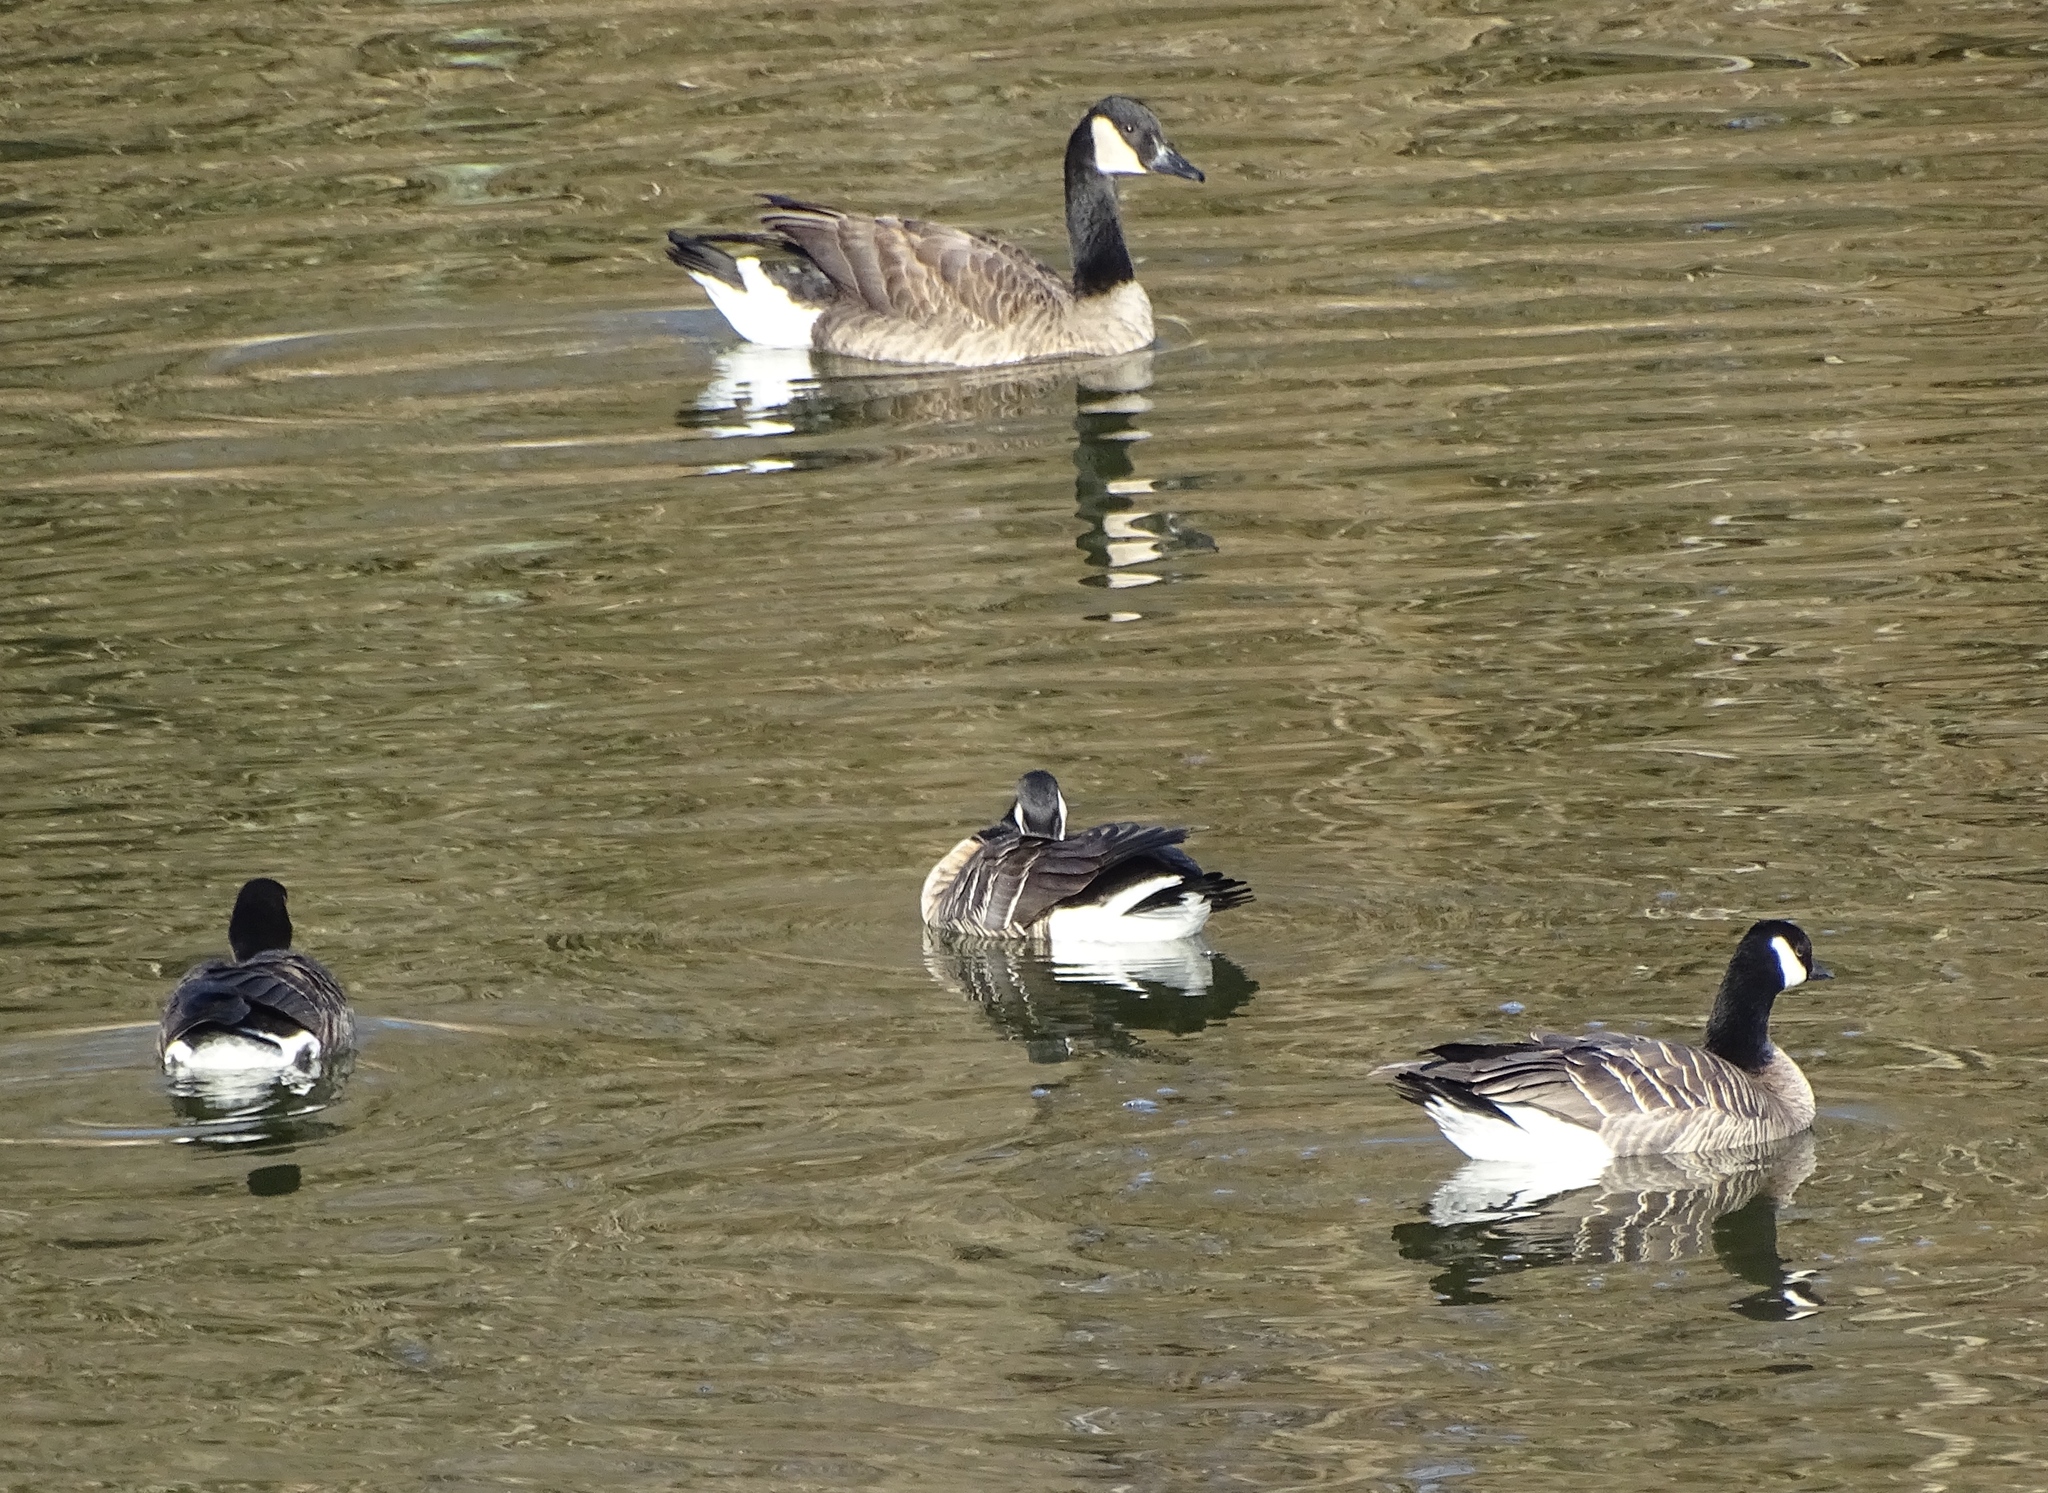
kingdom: Animalia
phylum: Chordata
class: Aves
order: Anseriformes
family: Anatidae
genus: Branta
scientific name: Branta hutchinsii
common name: Cackling goose
